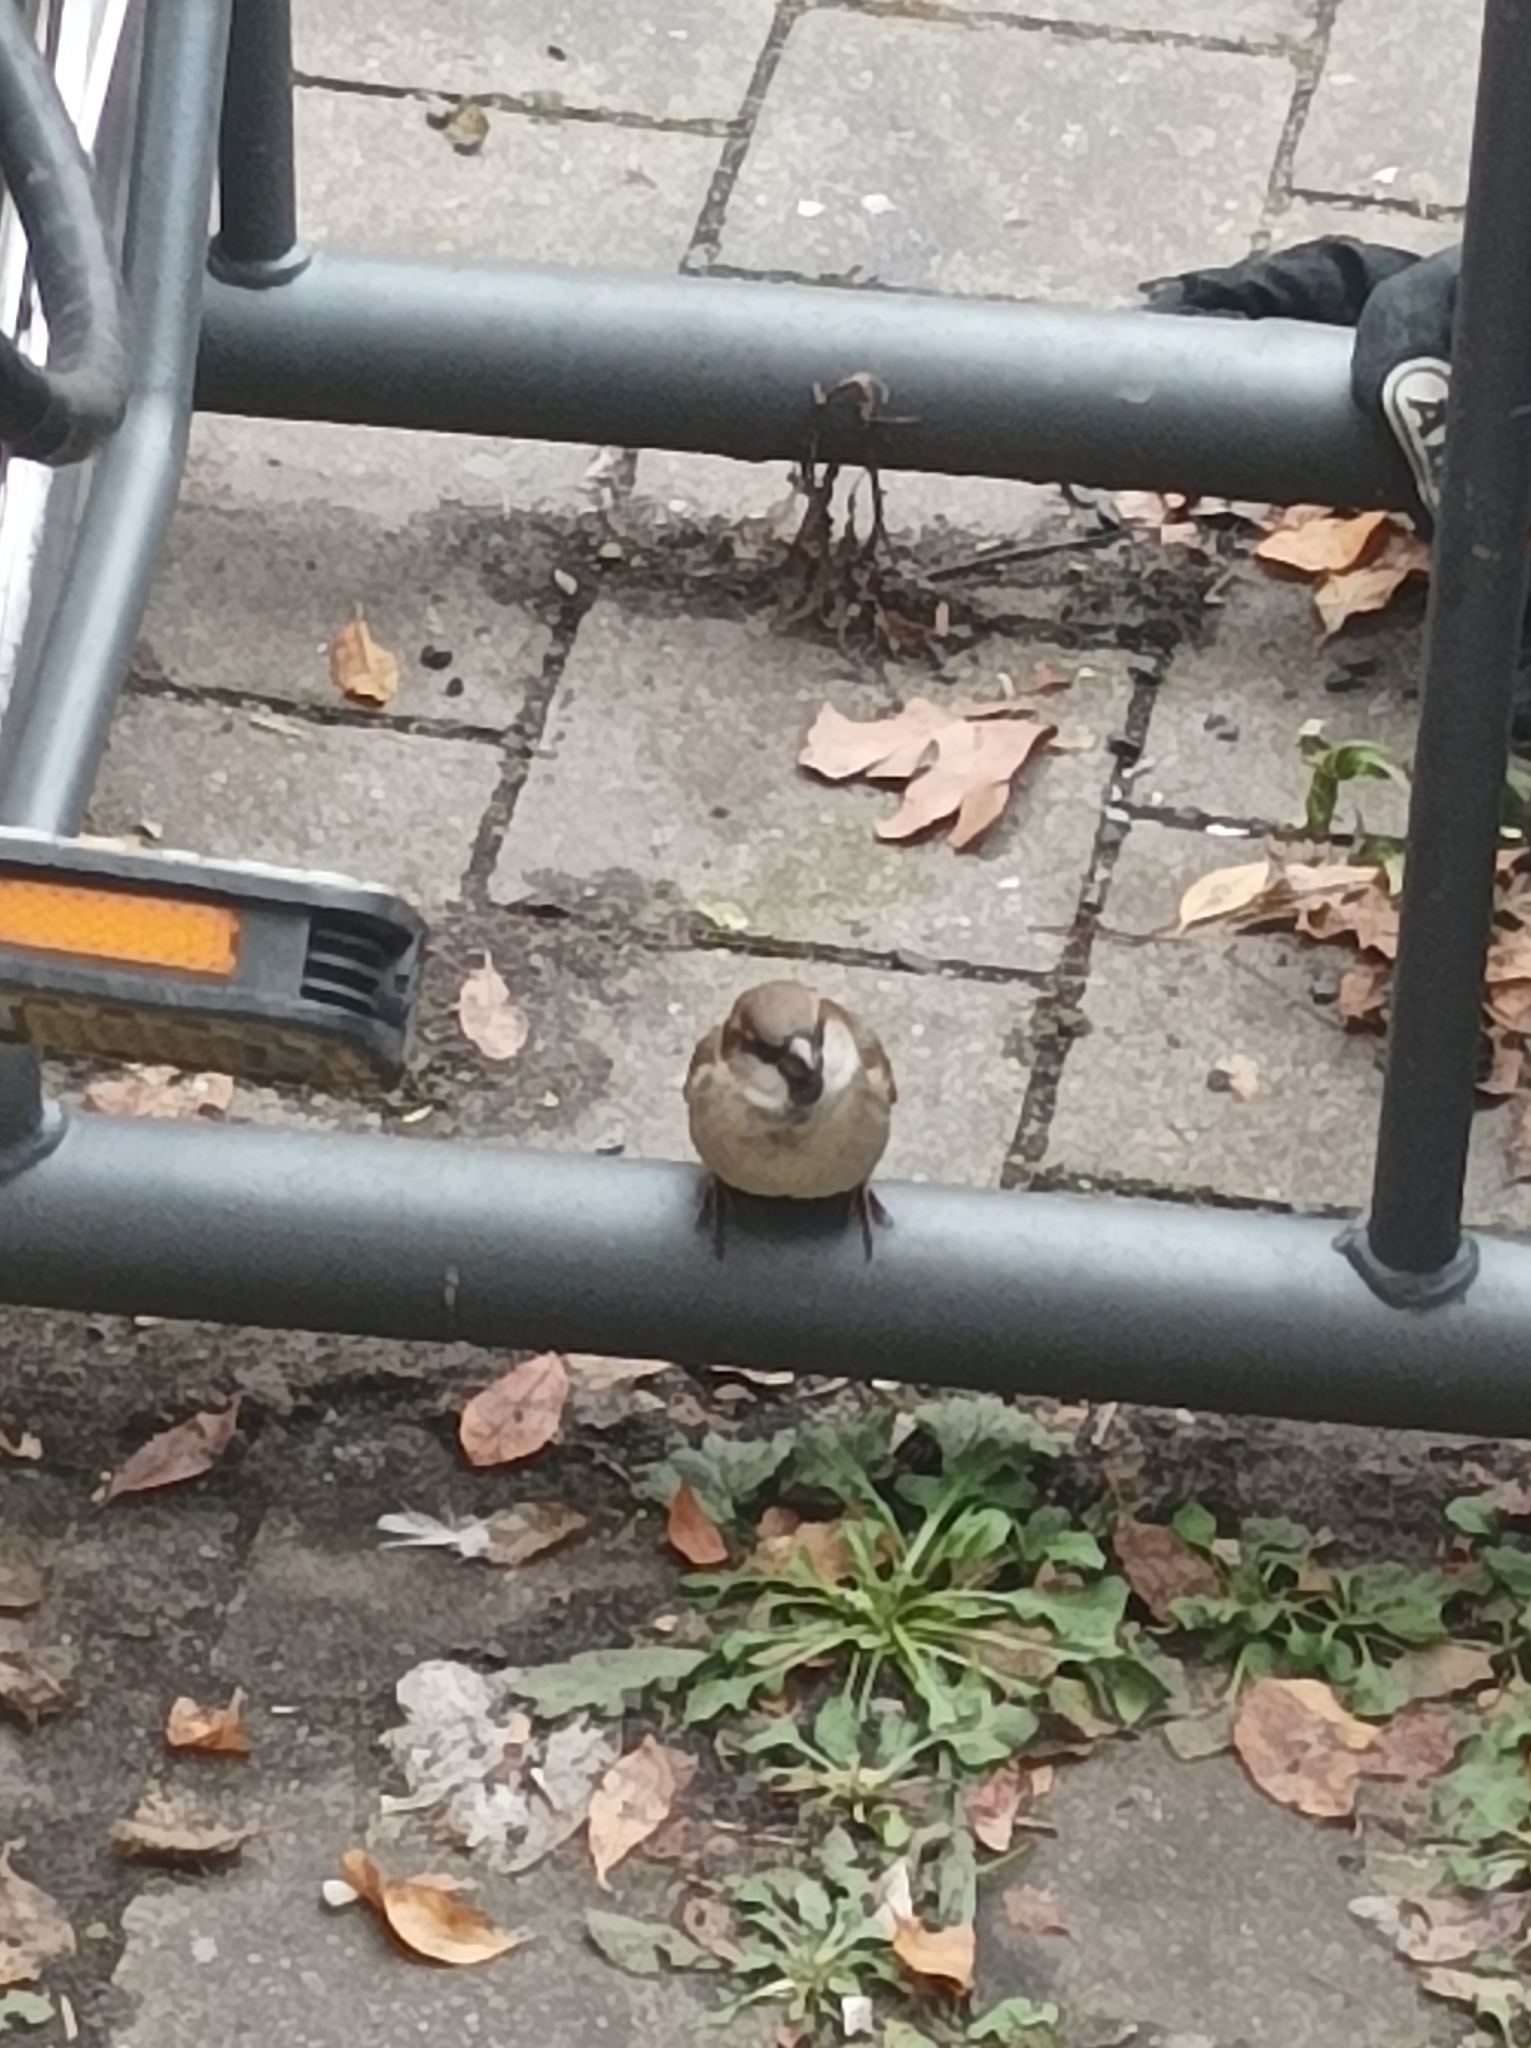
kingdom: Animalia
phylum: Chordata
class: Aves
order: Passeriformes
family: Passeridae
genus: Passer
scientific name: Passer domesticus
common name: House sparrow
